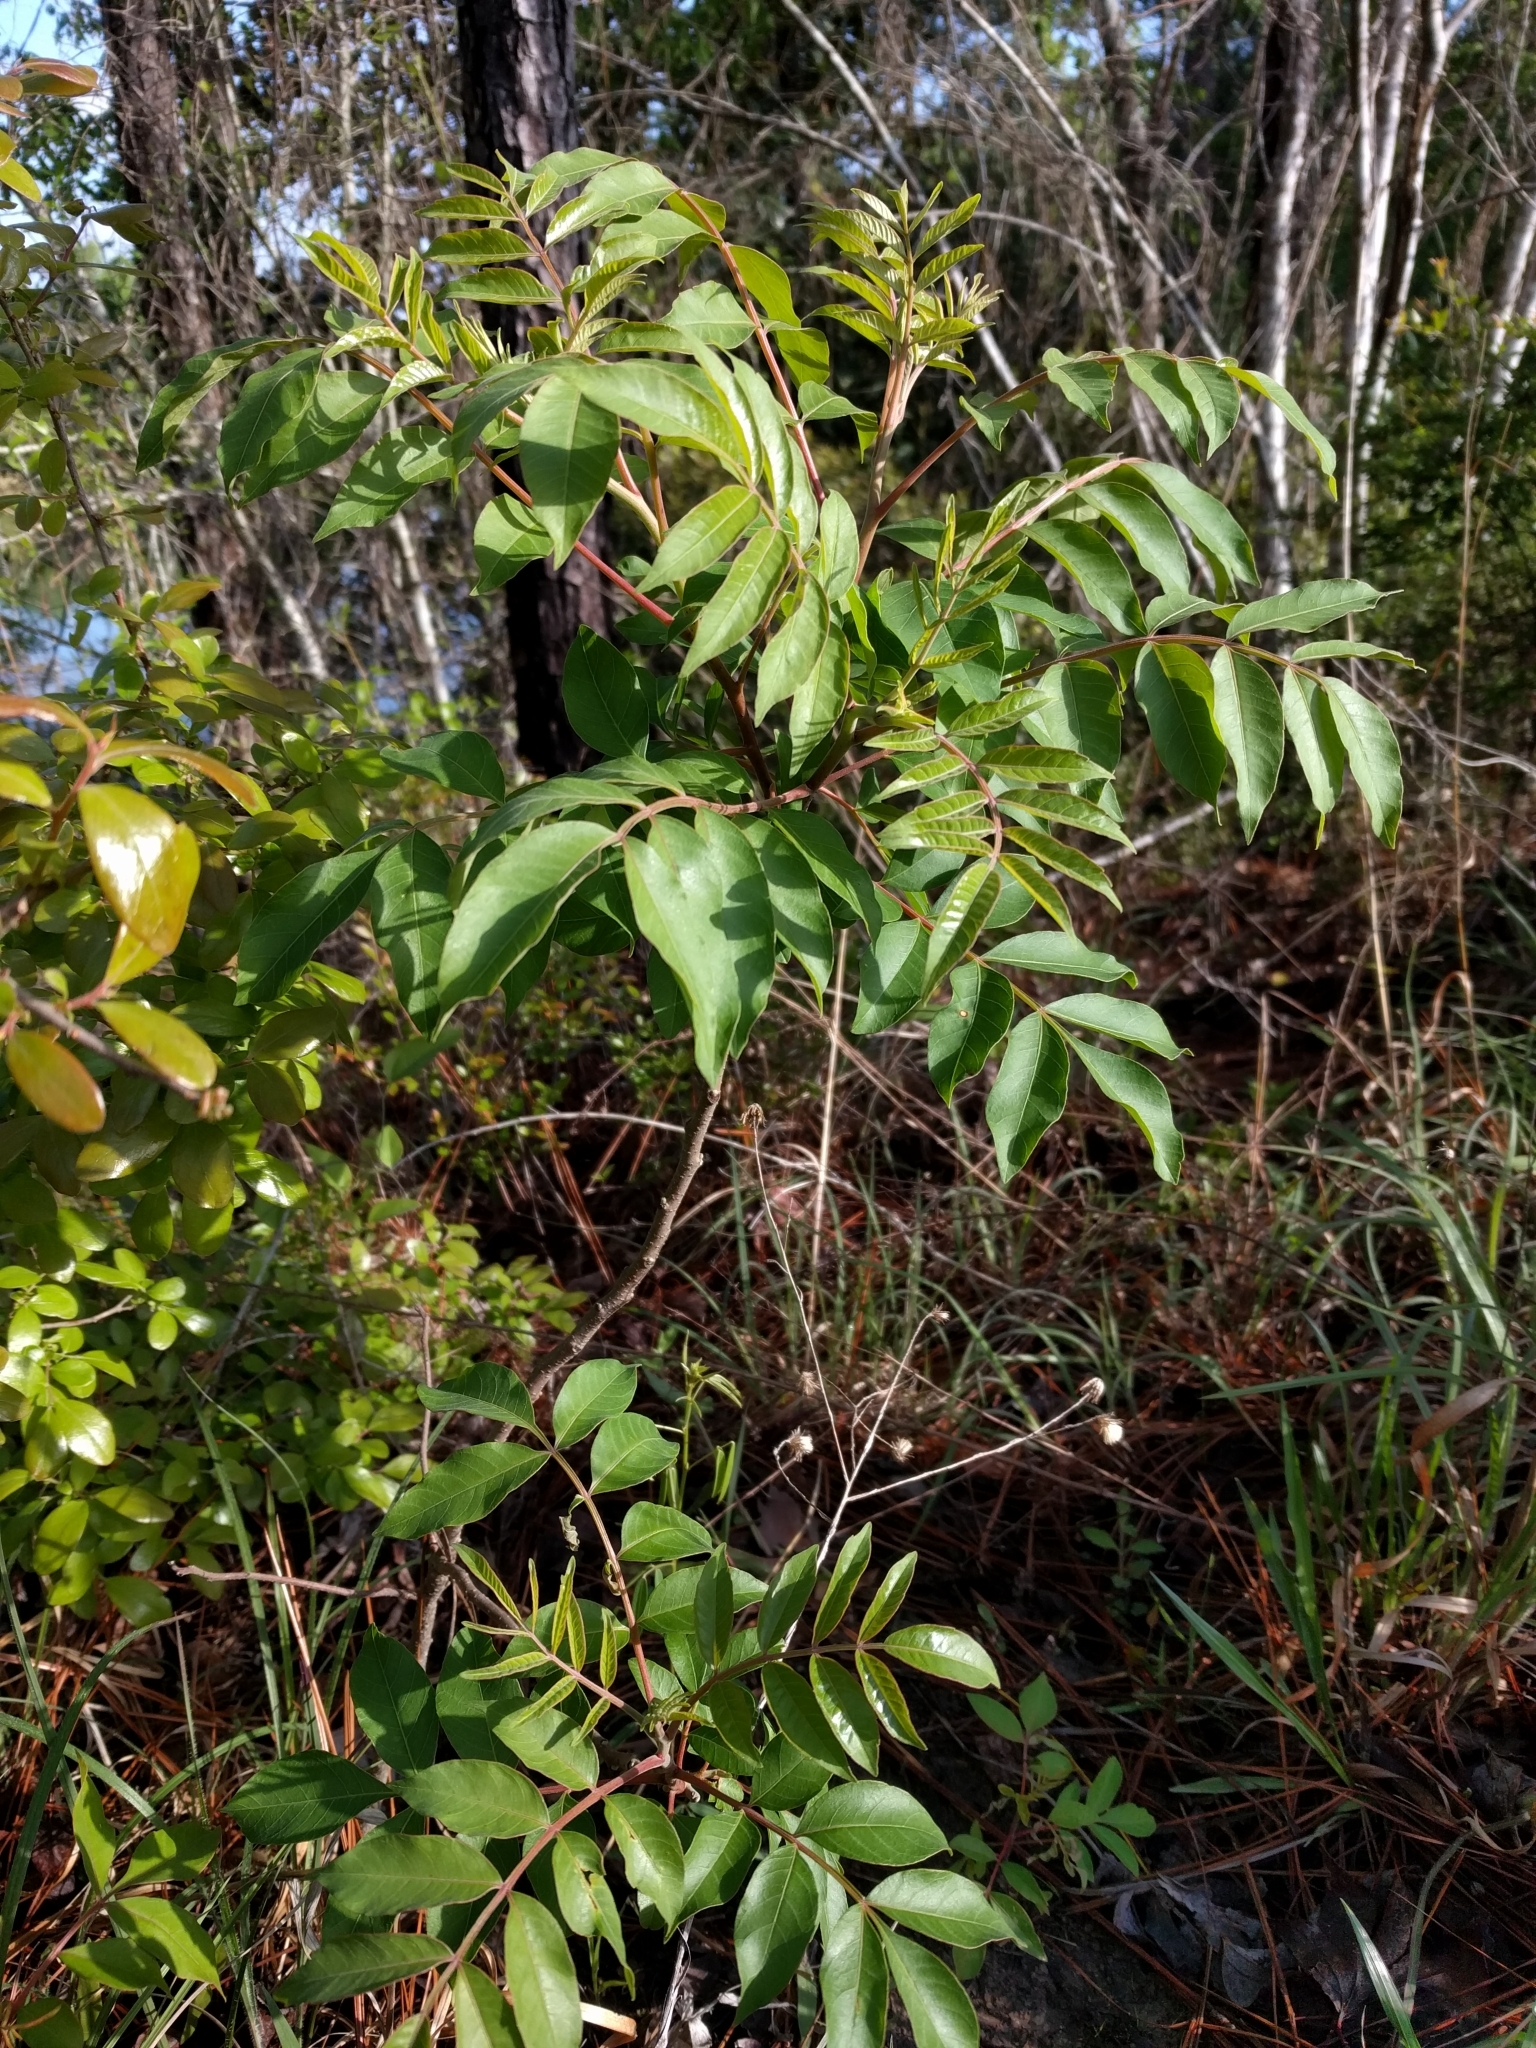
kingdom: Plantae
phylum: Tracheophyta
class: Magnoliopsida
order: Sapindales
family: Anacardiaceae
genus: Rhus
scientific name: Rhus copallina
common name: Shining sumac
